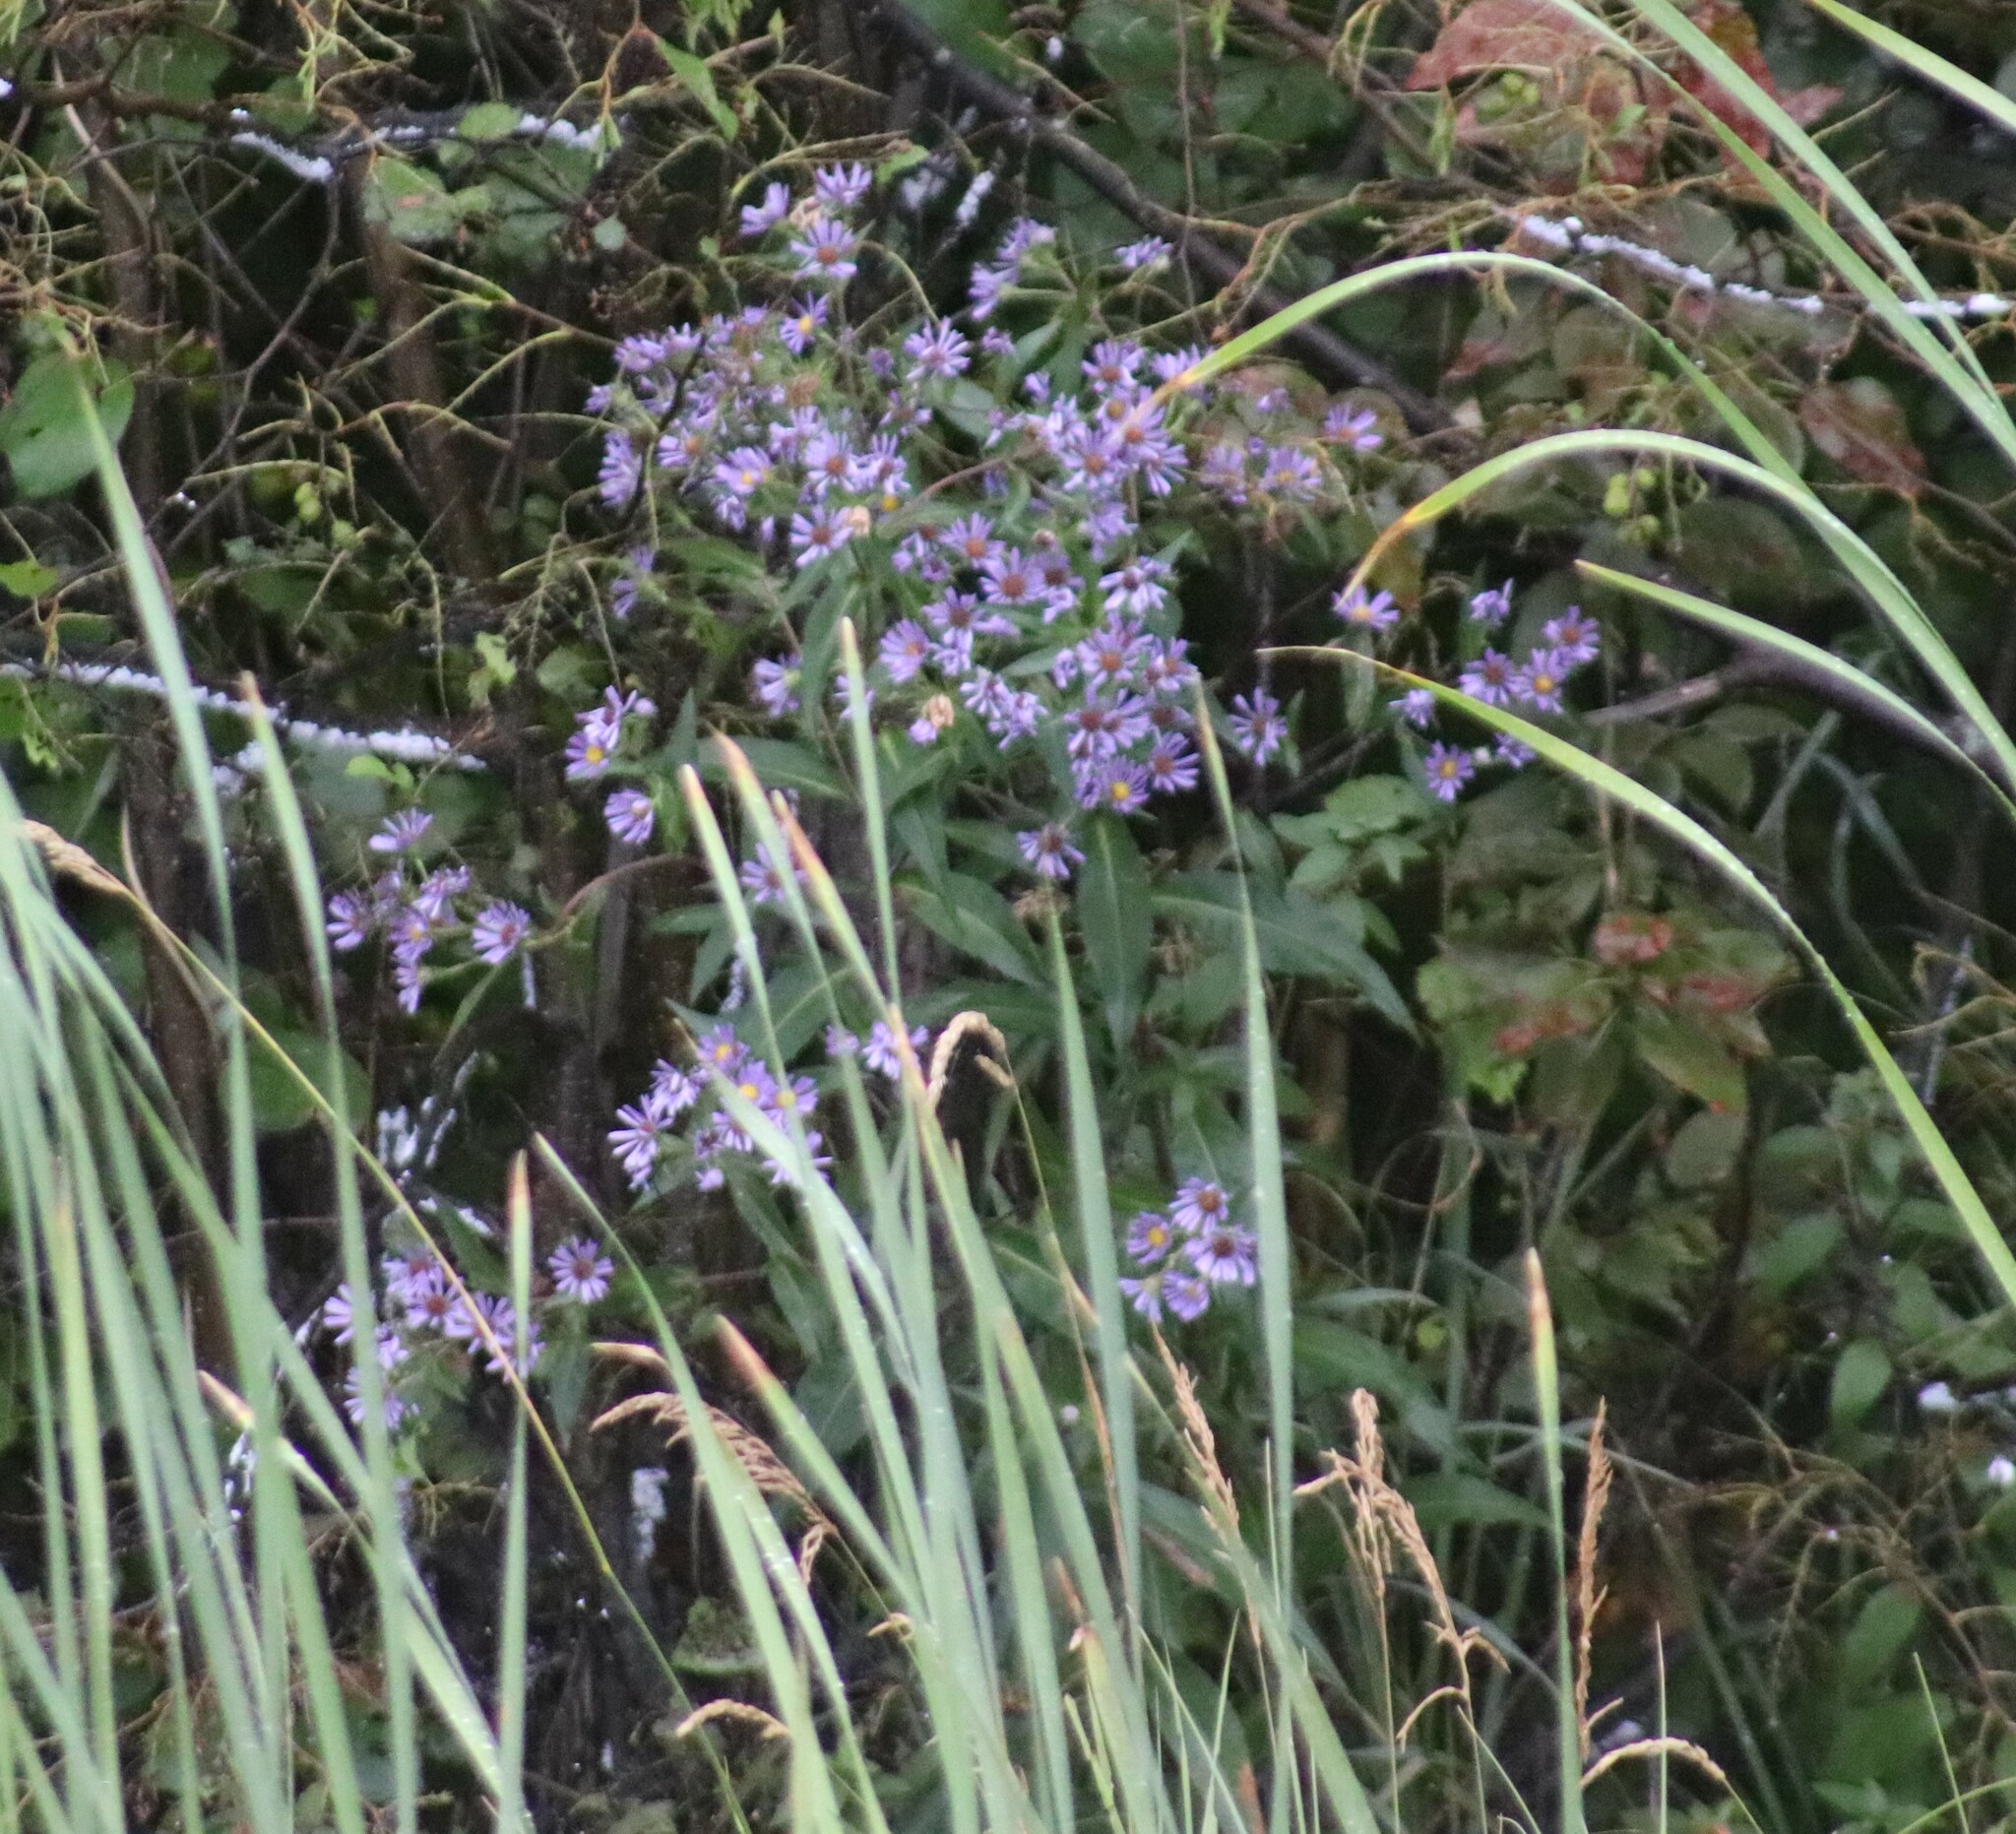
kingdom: Plantae
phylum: Tracheophyta
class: Magnoliopsida
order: Asterales
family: Asteraceae
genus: Symphyotrichum
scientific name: Symphyotrichum puniceum
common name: Bog aster
